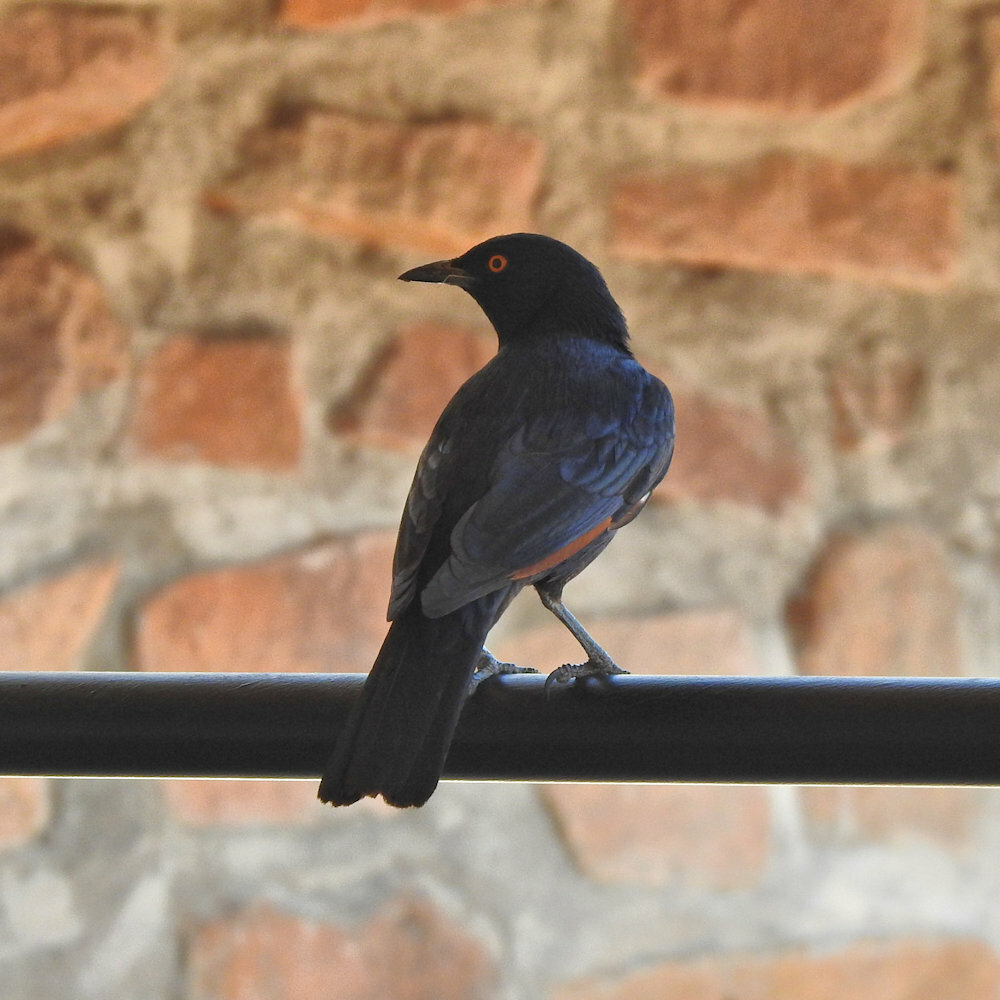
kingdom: Animalia
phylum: Chordata
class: Aves
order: Passeriformes
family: Sturnidae
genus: Onychognathus
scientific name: Onychognathus nabouroup
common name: Pale-winged starling
